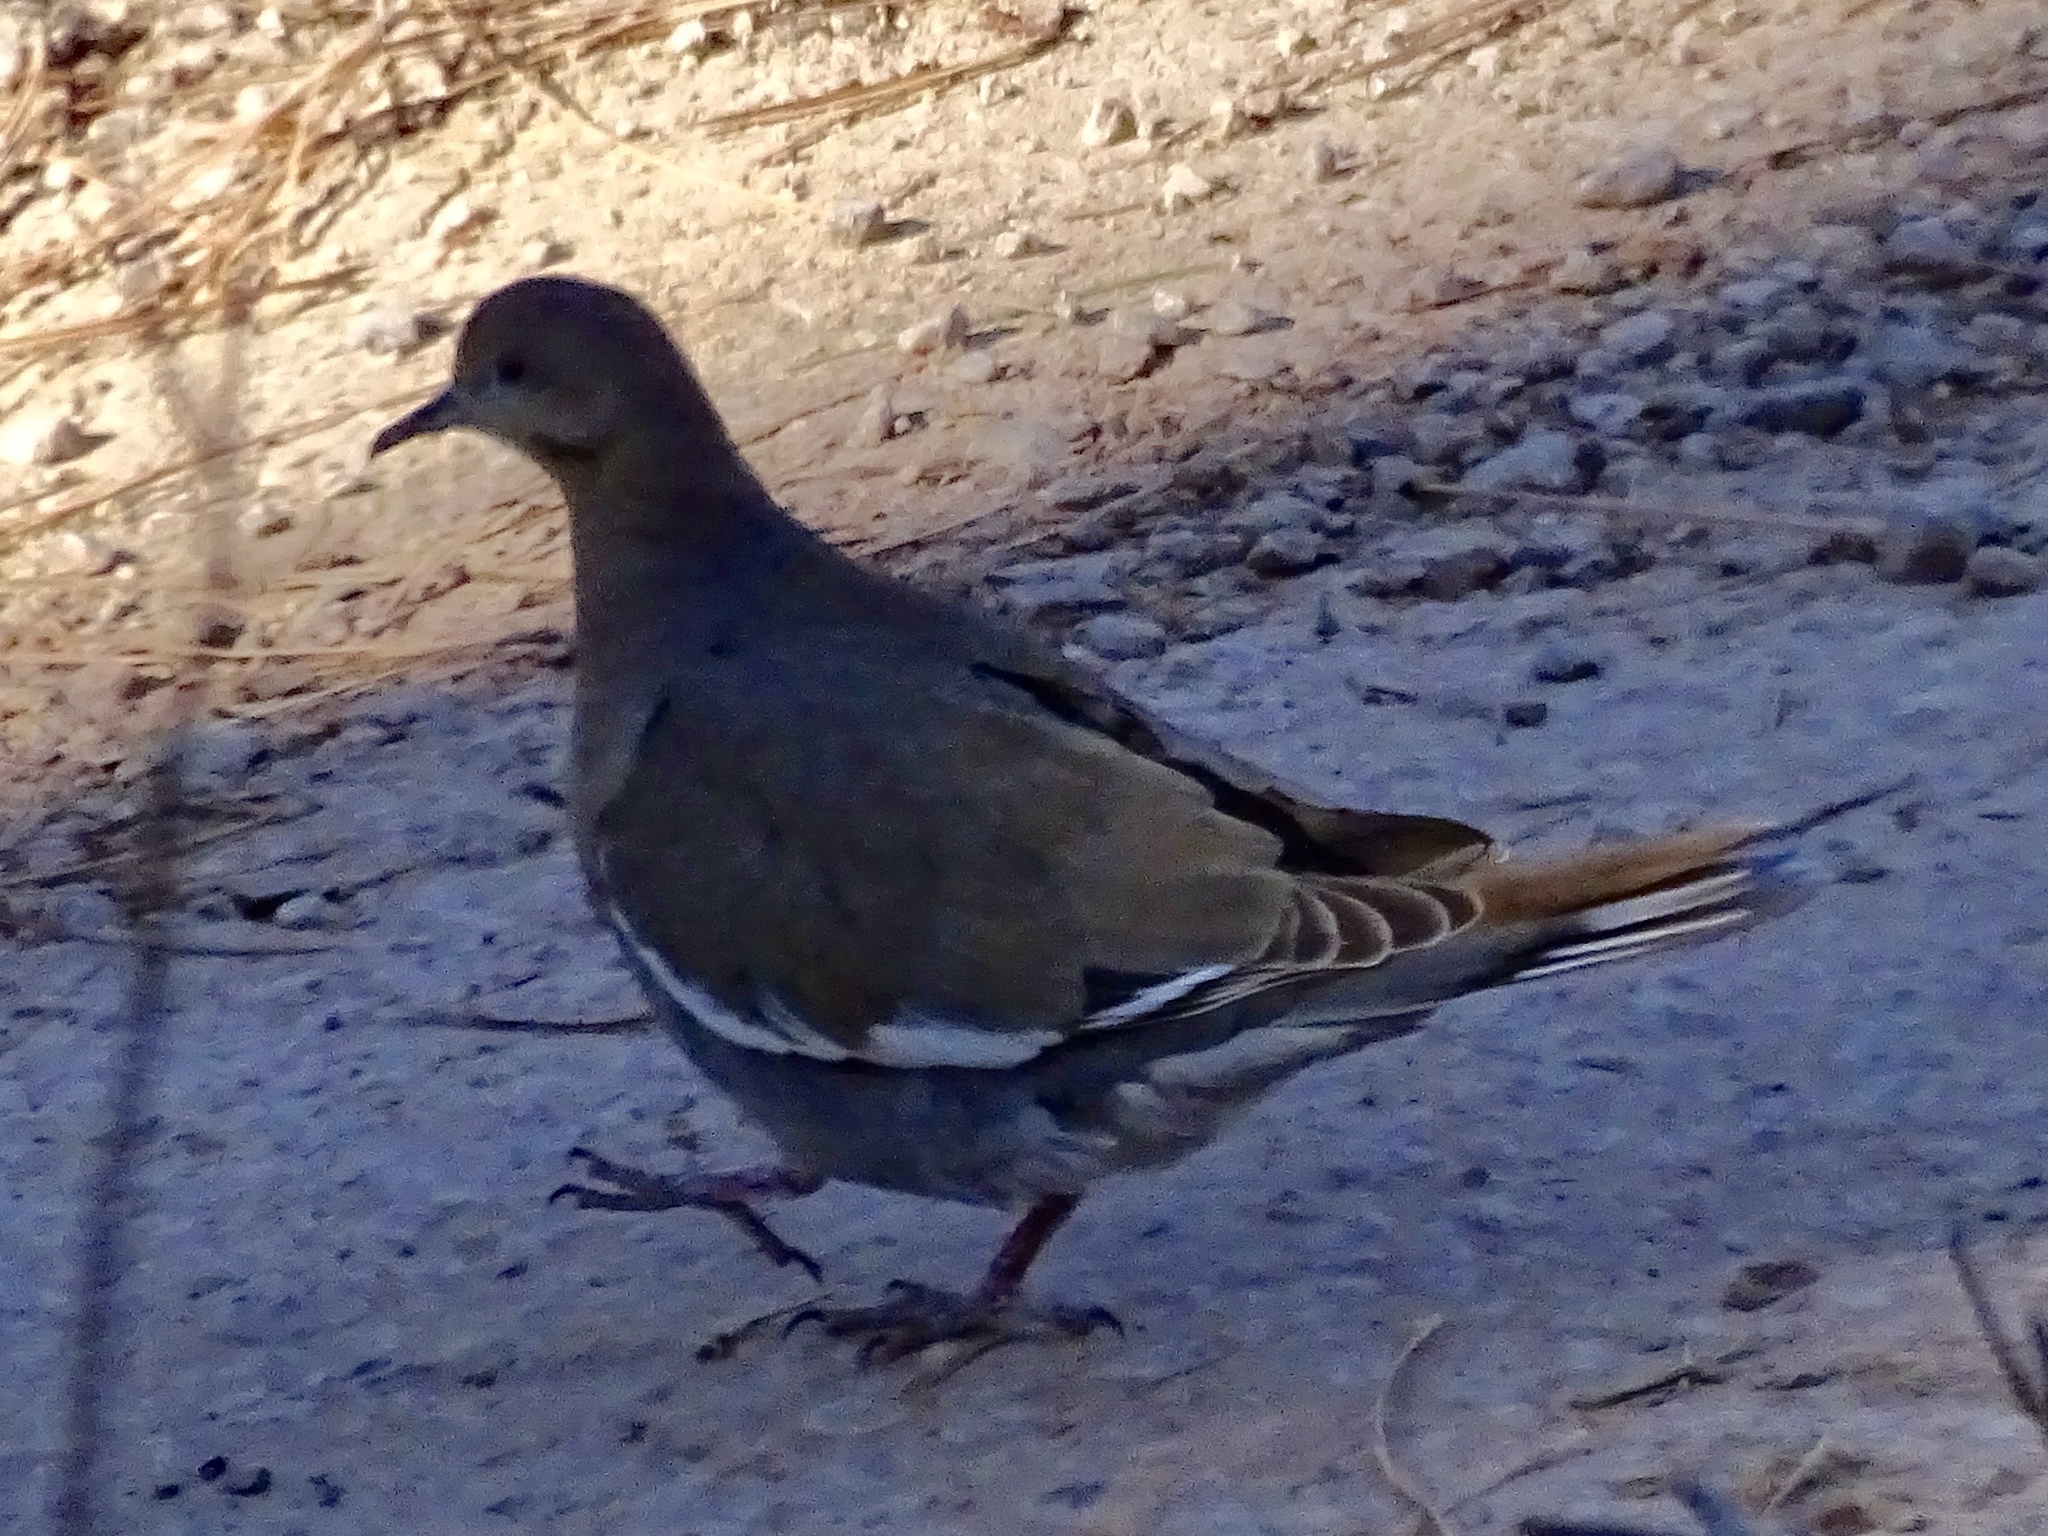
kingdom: Animalia
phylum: Chordata
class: Aves
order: Columbiformes
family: Columbidae
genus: Zenaida
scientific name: Zenaida asiatica
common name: White-winged dove
